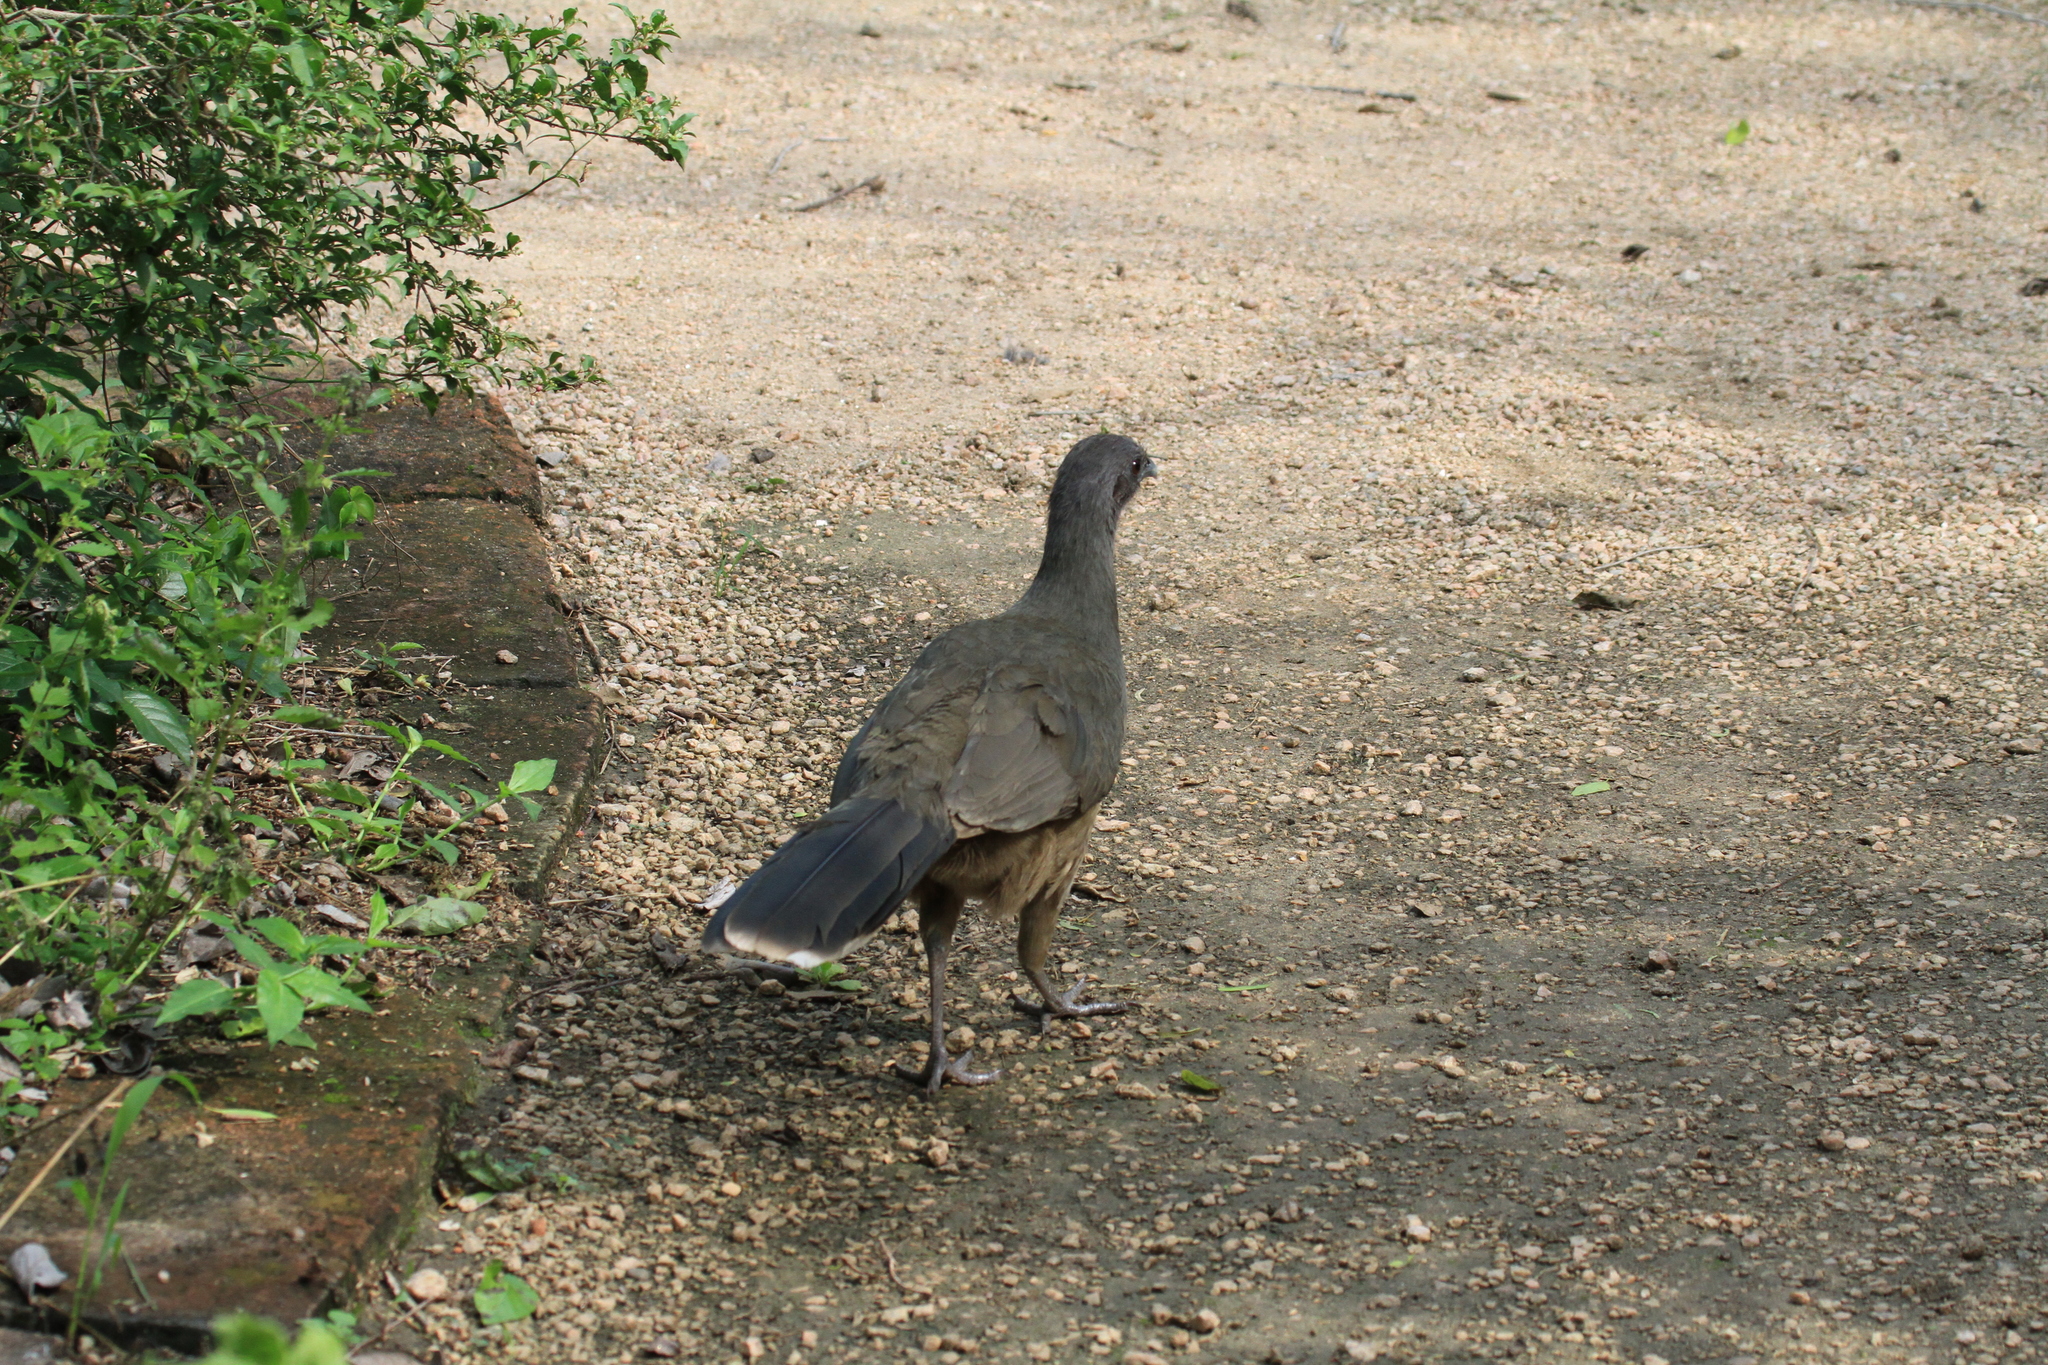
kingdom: Animalia
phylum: Chordata
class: Aves
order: Galliformes
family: Cracidae
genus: Ortalis
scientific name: Ortalis vetula
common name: Plain chachalaca
